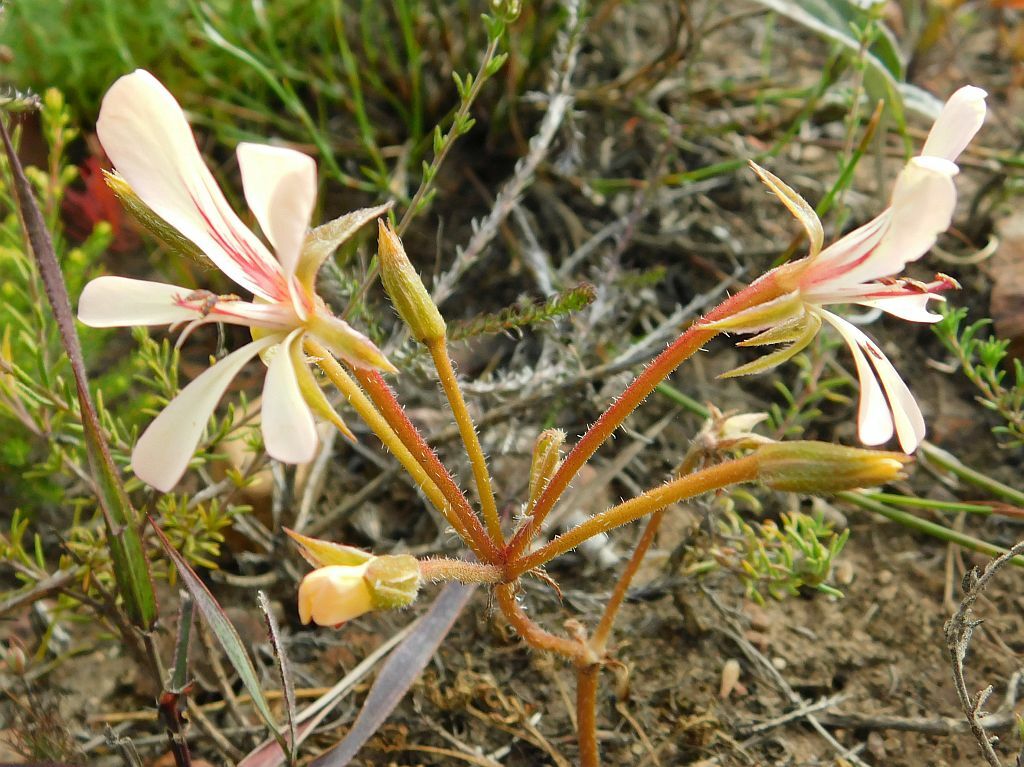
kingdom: Plantae
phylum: Tracheophyta
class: Magnoliopsida
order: Geraniales
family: Geraniaceae
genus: Pelargonium
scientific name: Pelargonium carneum
